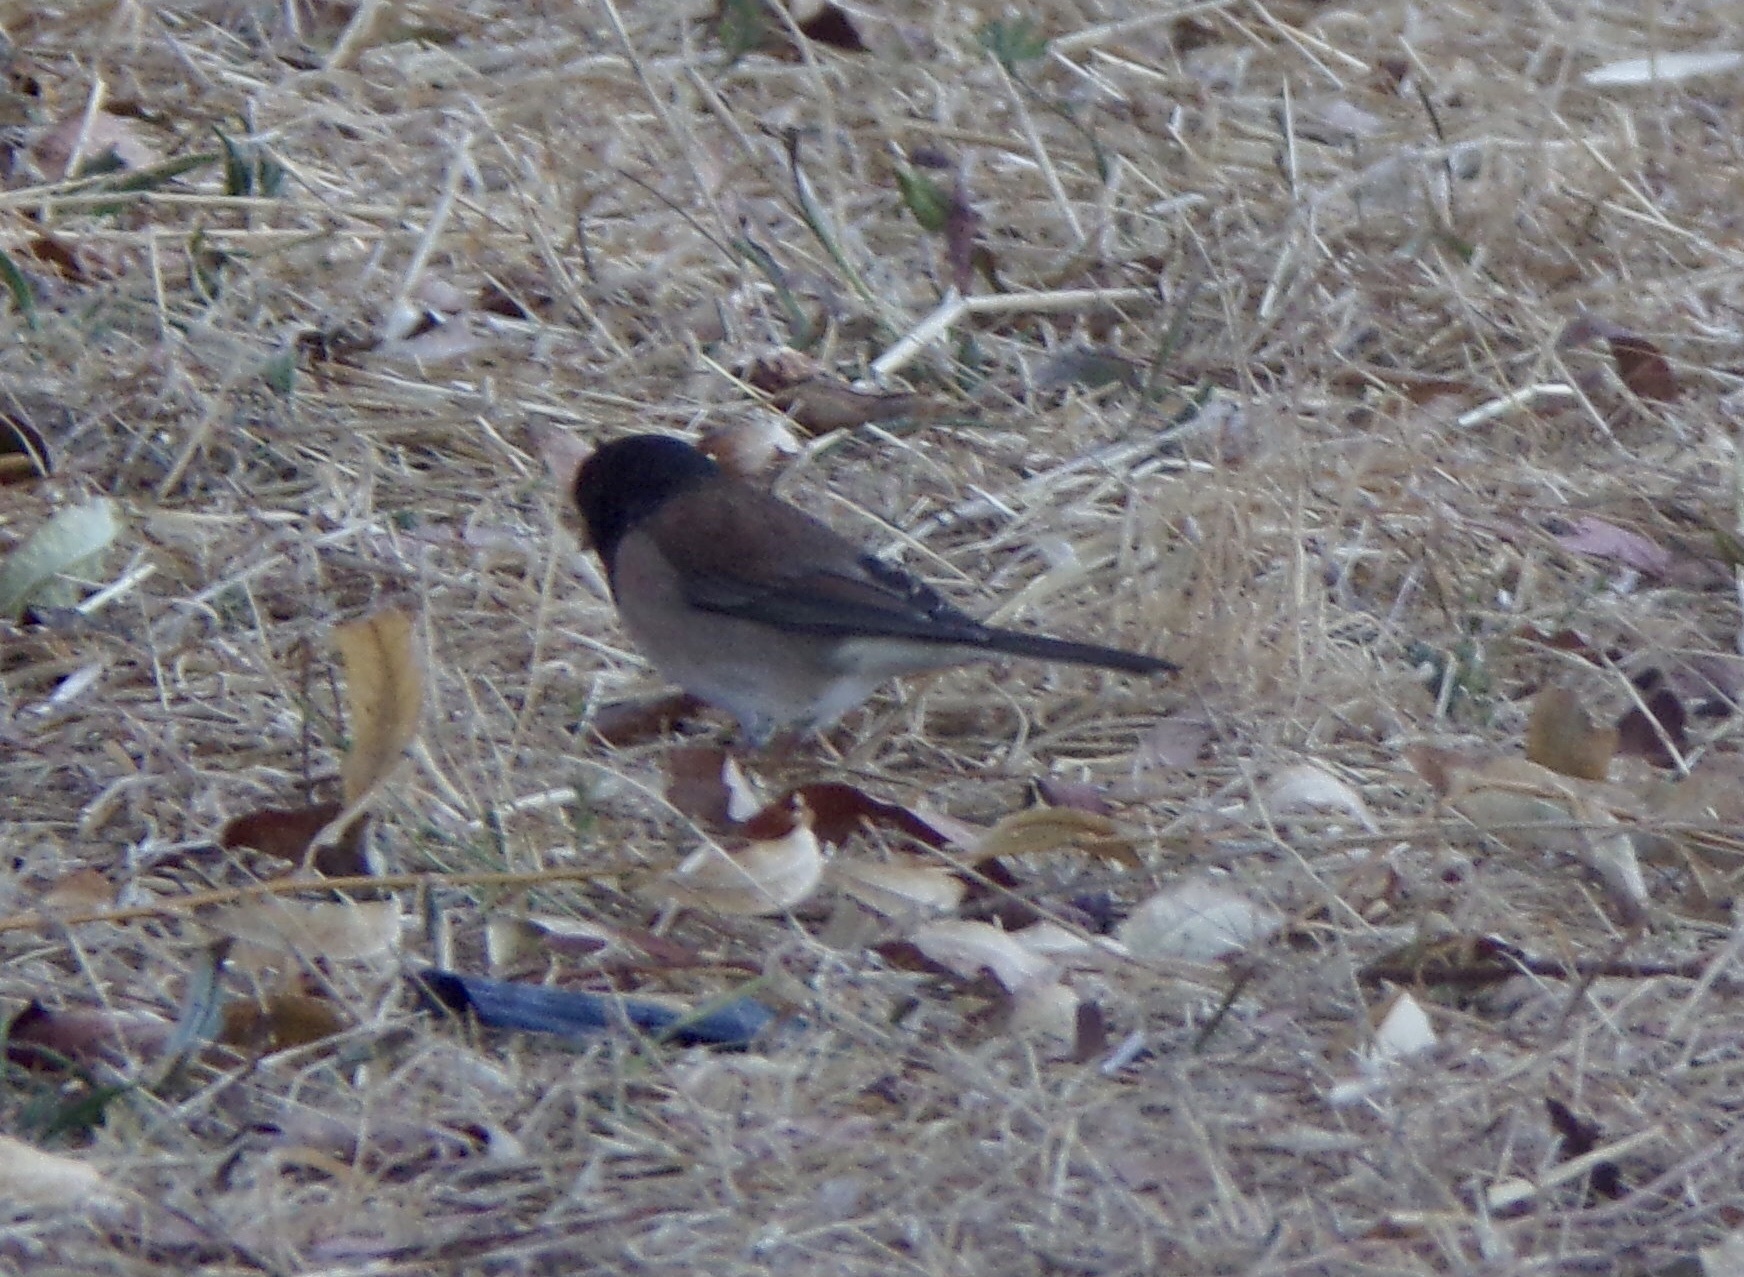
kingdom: Animalia
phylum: Chordata
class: Aves
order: Passeriformes
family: Passerellidae
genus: Junco
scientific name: Junco hyemalis
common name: Dark-eyed junco
